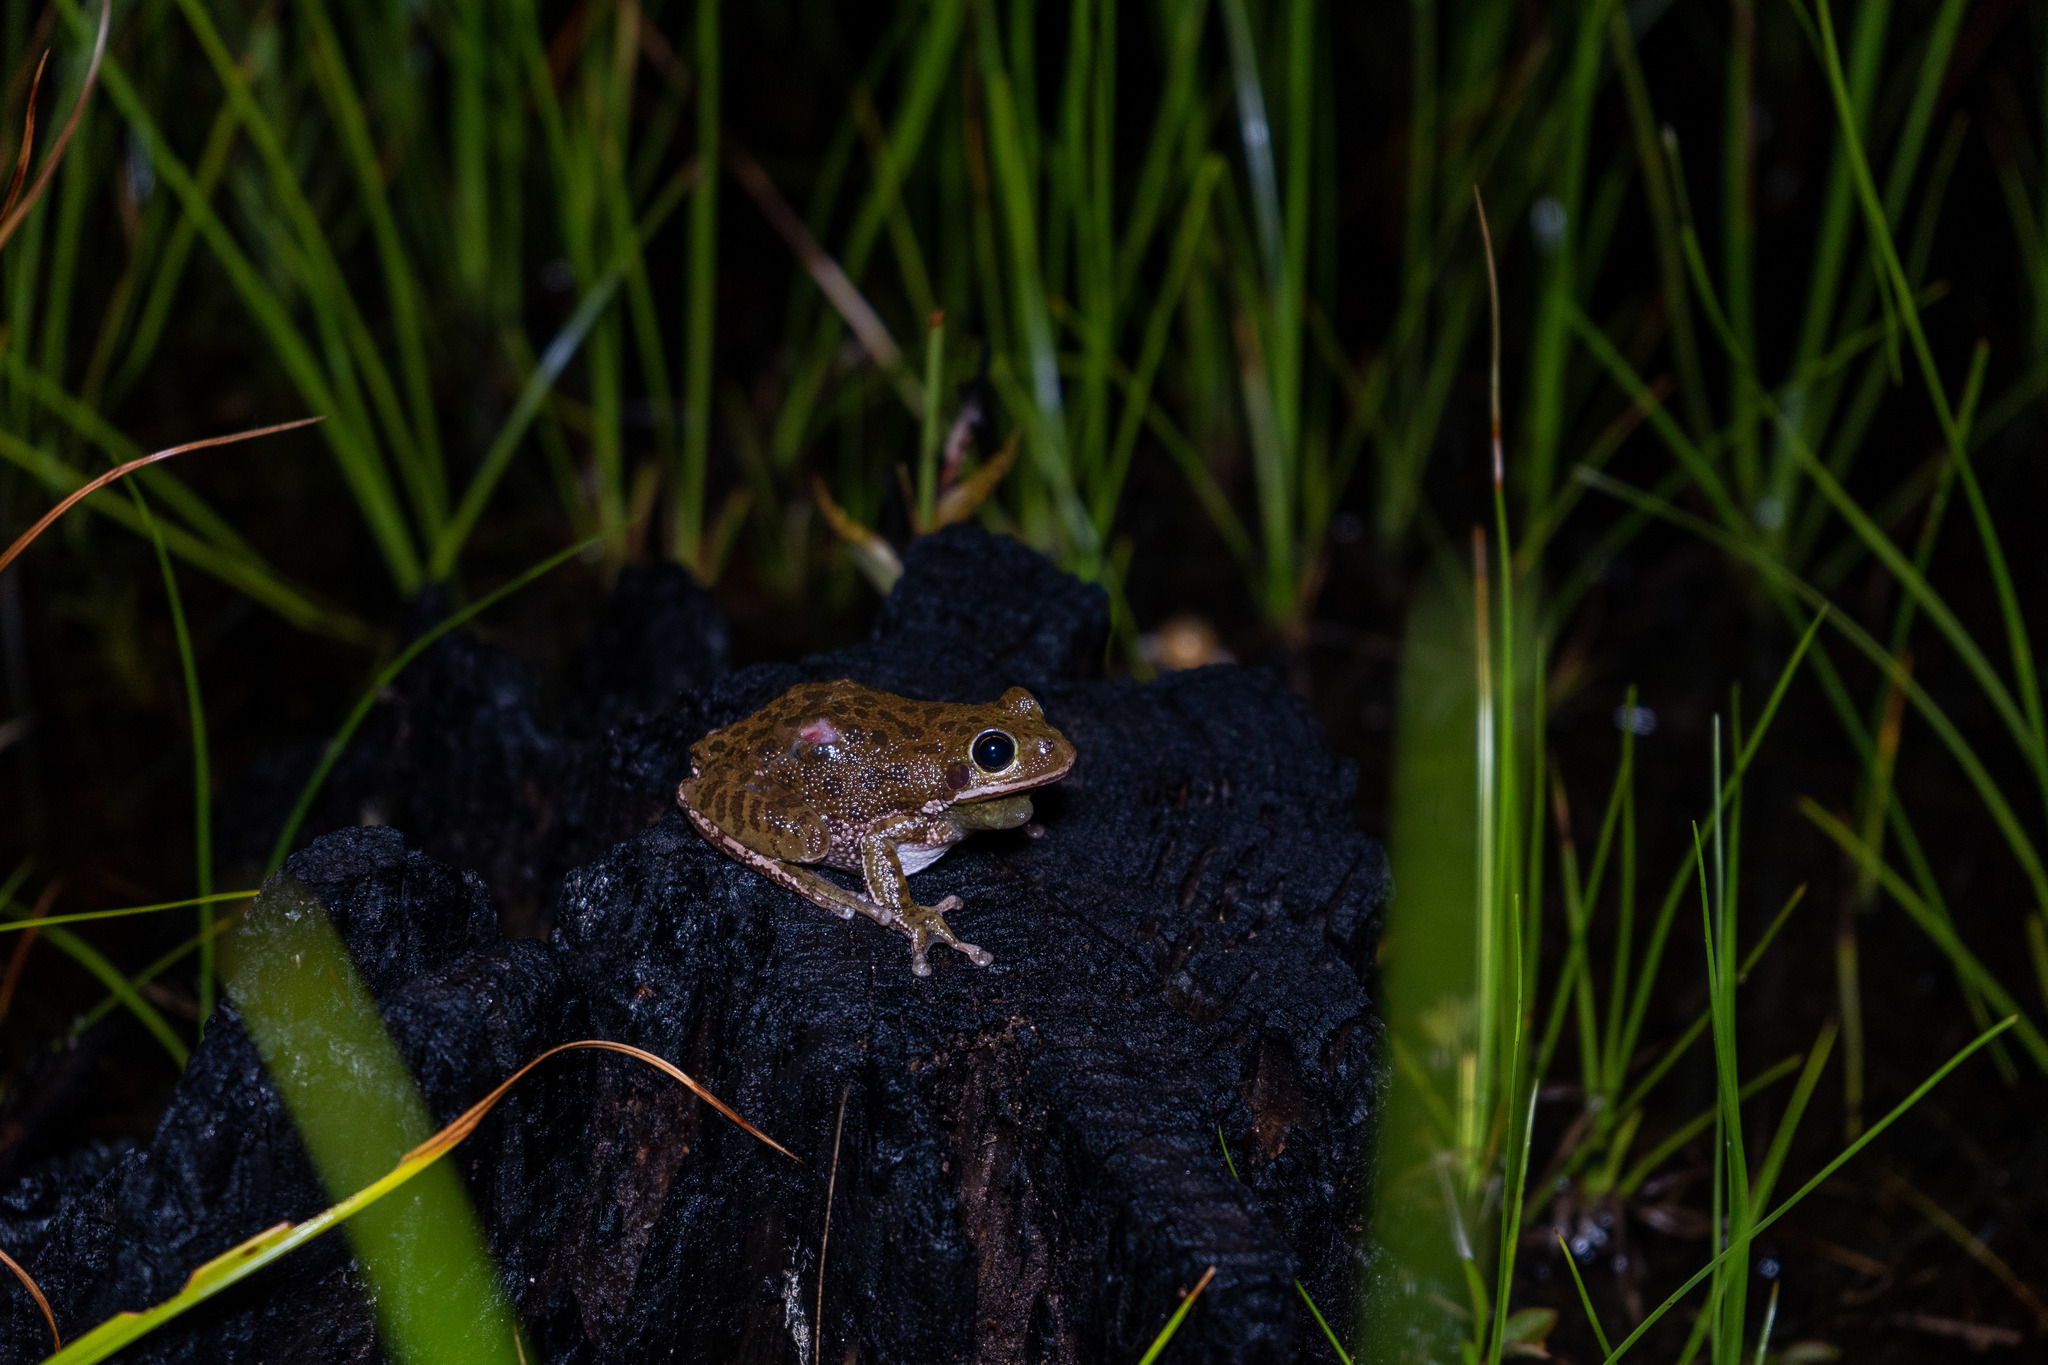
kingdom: Animalia
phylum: Chordata
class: Amphibia
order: Anura
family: Hylidae
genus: Dryophytes
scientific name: Dryophytes gratiosus
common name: Barking treefrog
